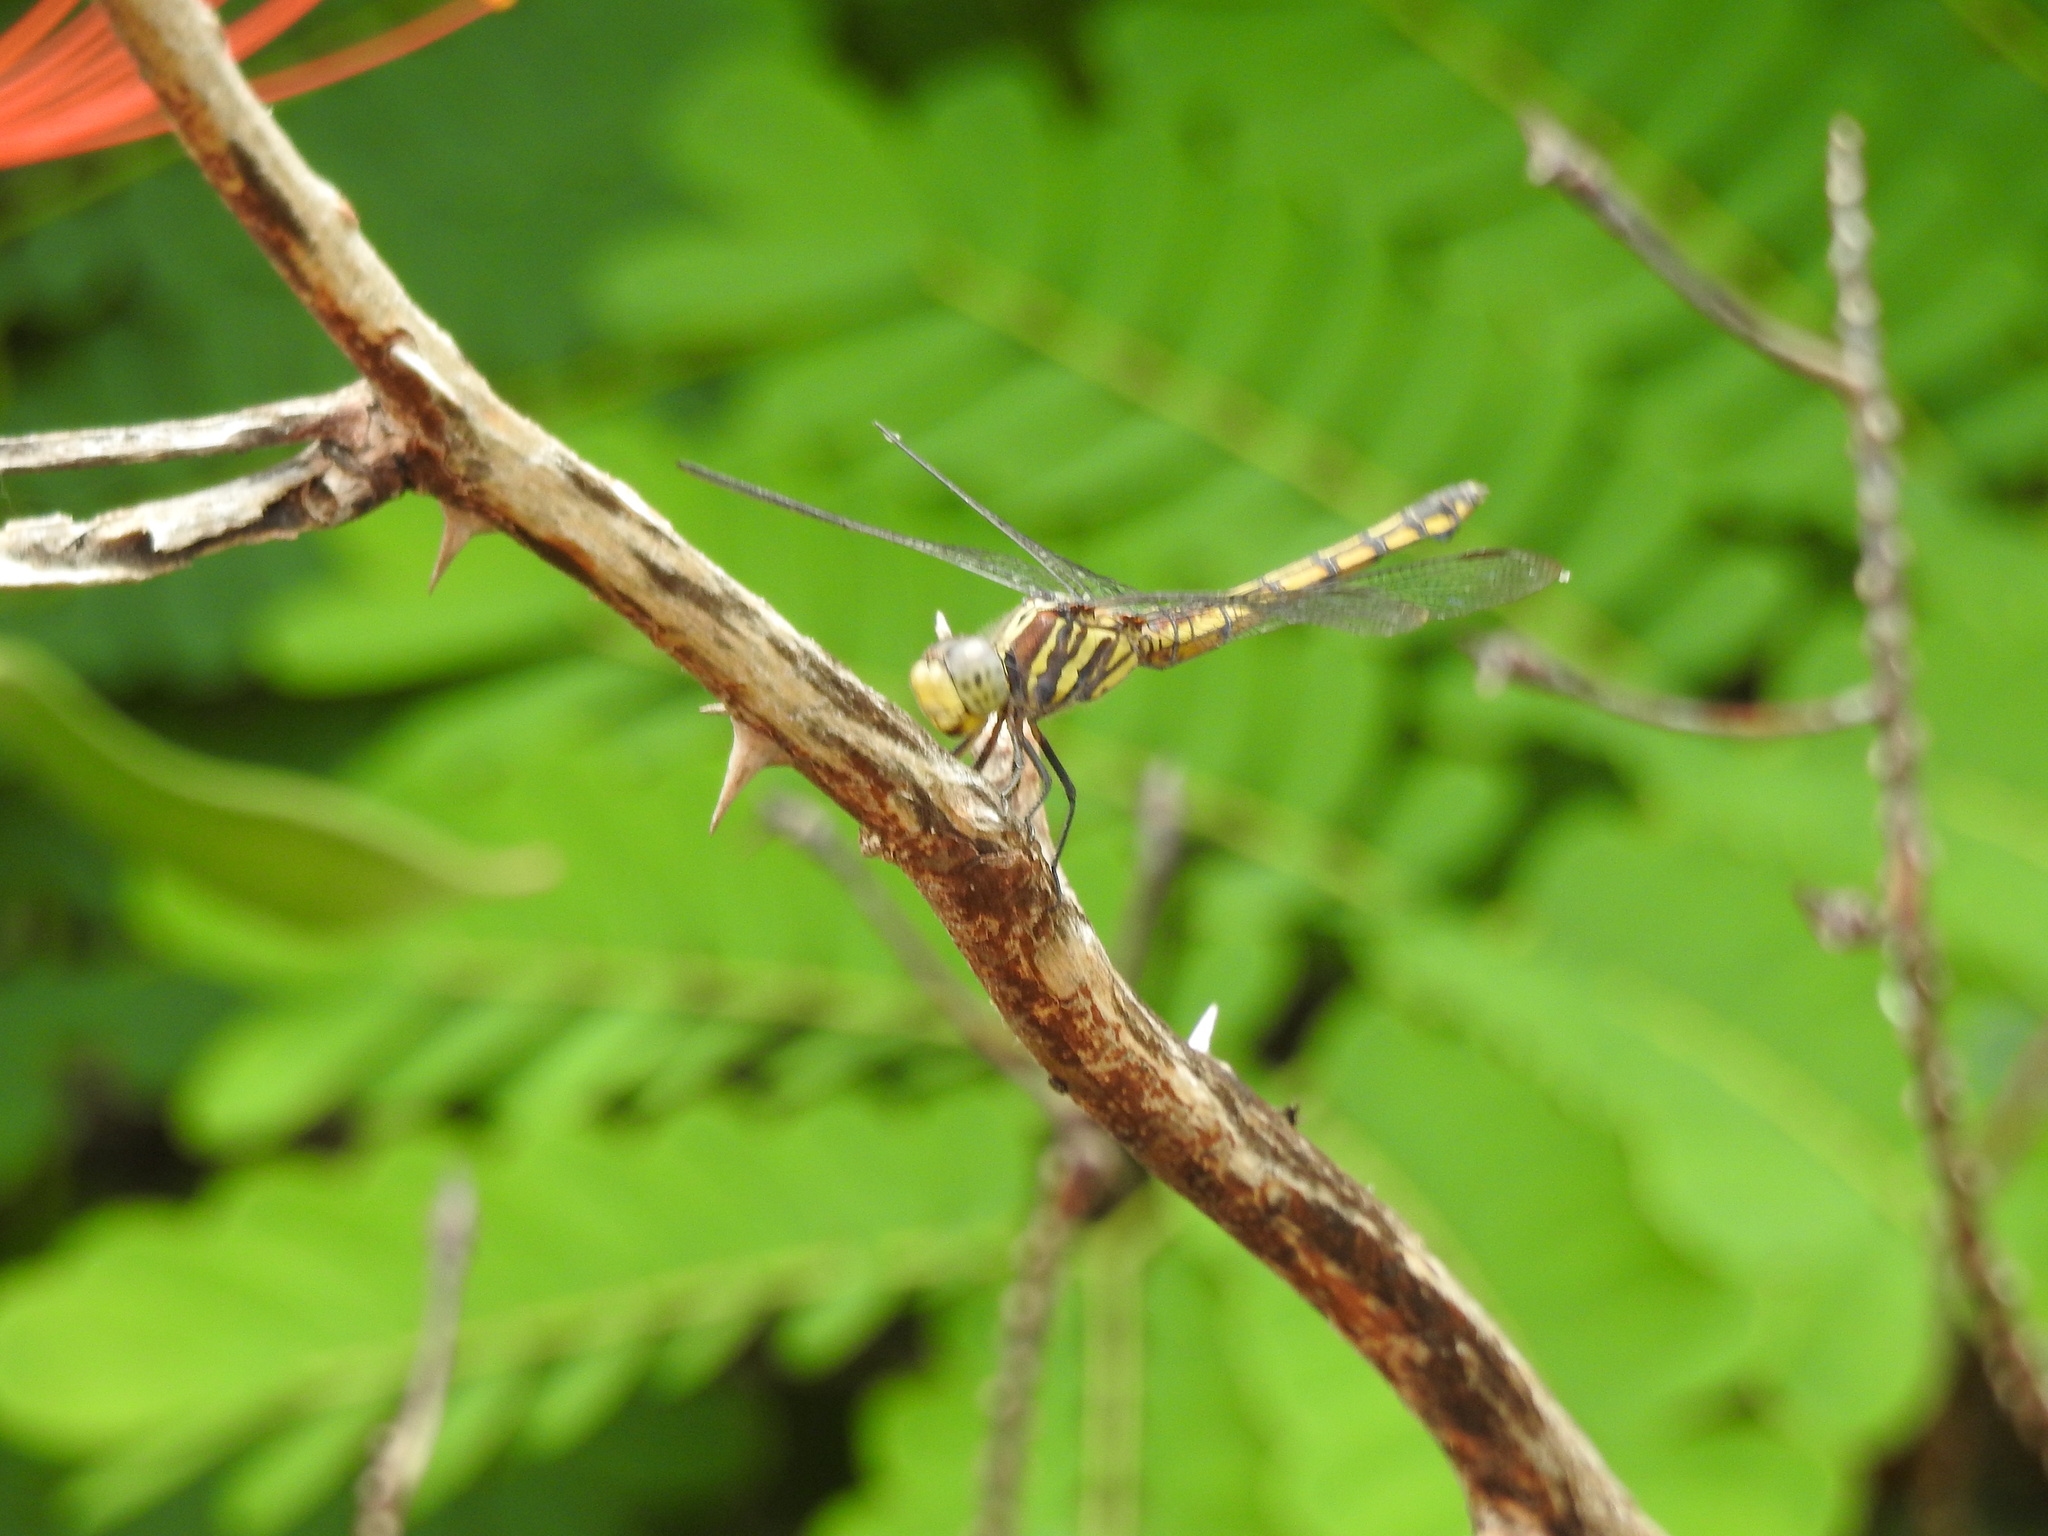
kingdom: Animalia
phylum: Arthropoda
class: Insecta
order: Odonata
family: Libellulidae
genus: Potamarcha
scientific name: Potamarcha congener
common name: Blue chaser
